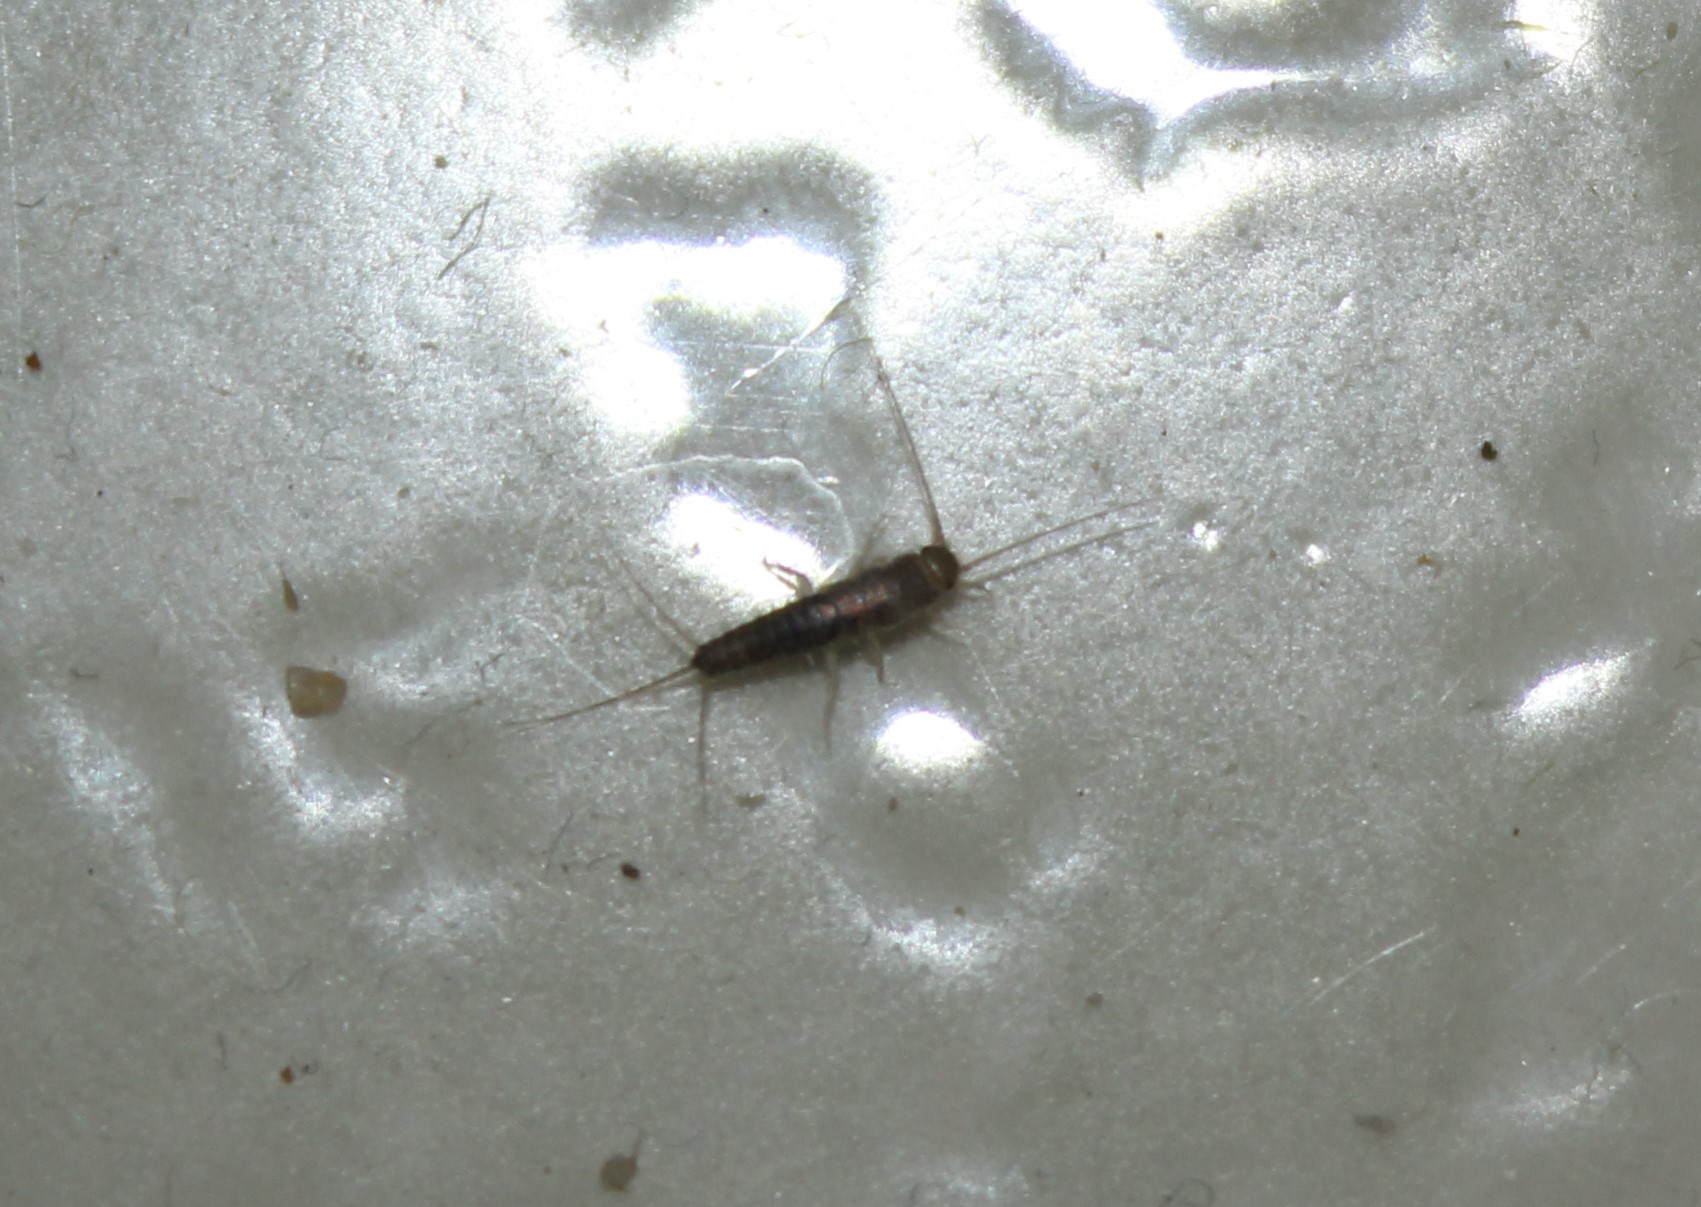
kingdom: Animalia
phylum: Arthropoda
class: Insecta
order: Zygentoma
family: Lepismatidae
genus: Ctenolepisma
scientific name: Ctenolepisma longicaudatum
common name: Silverfish
